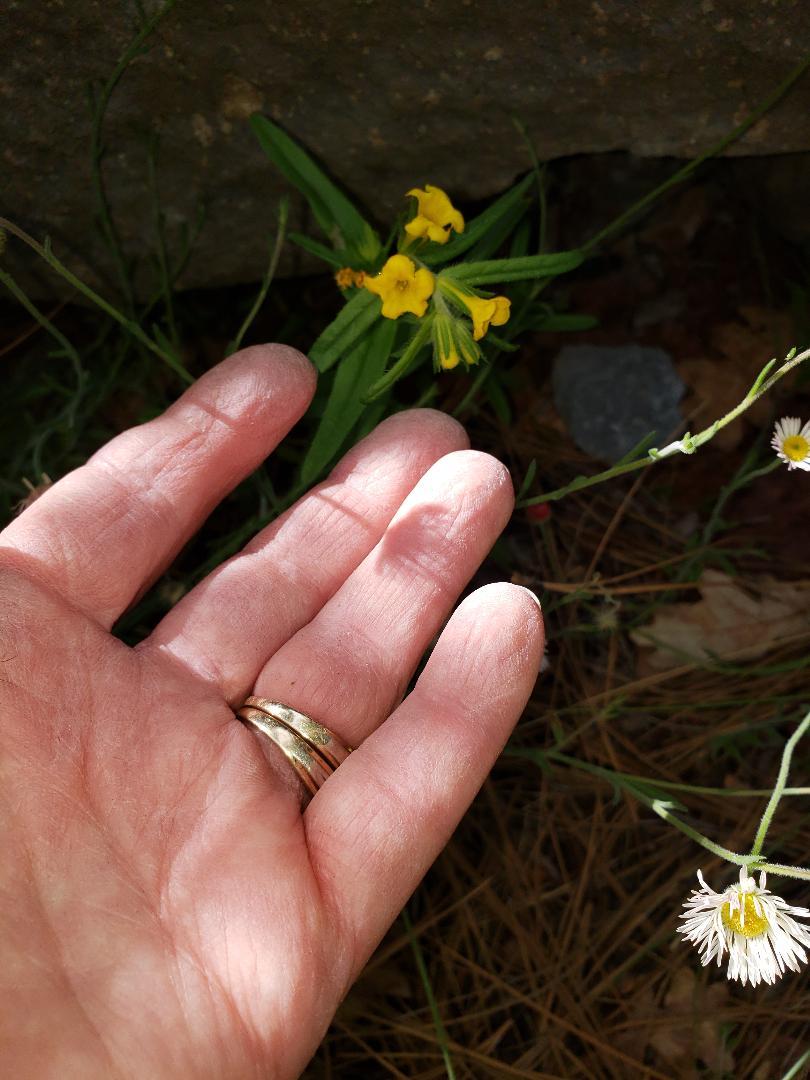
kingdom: Plantae
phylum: Tracheophyta
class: Magnoliopsida
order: Boraginales
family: Boraginaceae
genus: Lithospermum
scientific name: Lithospermum multiflorum
